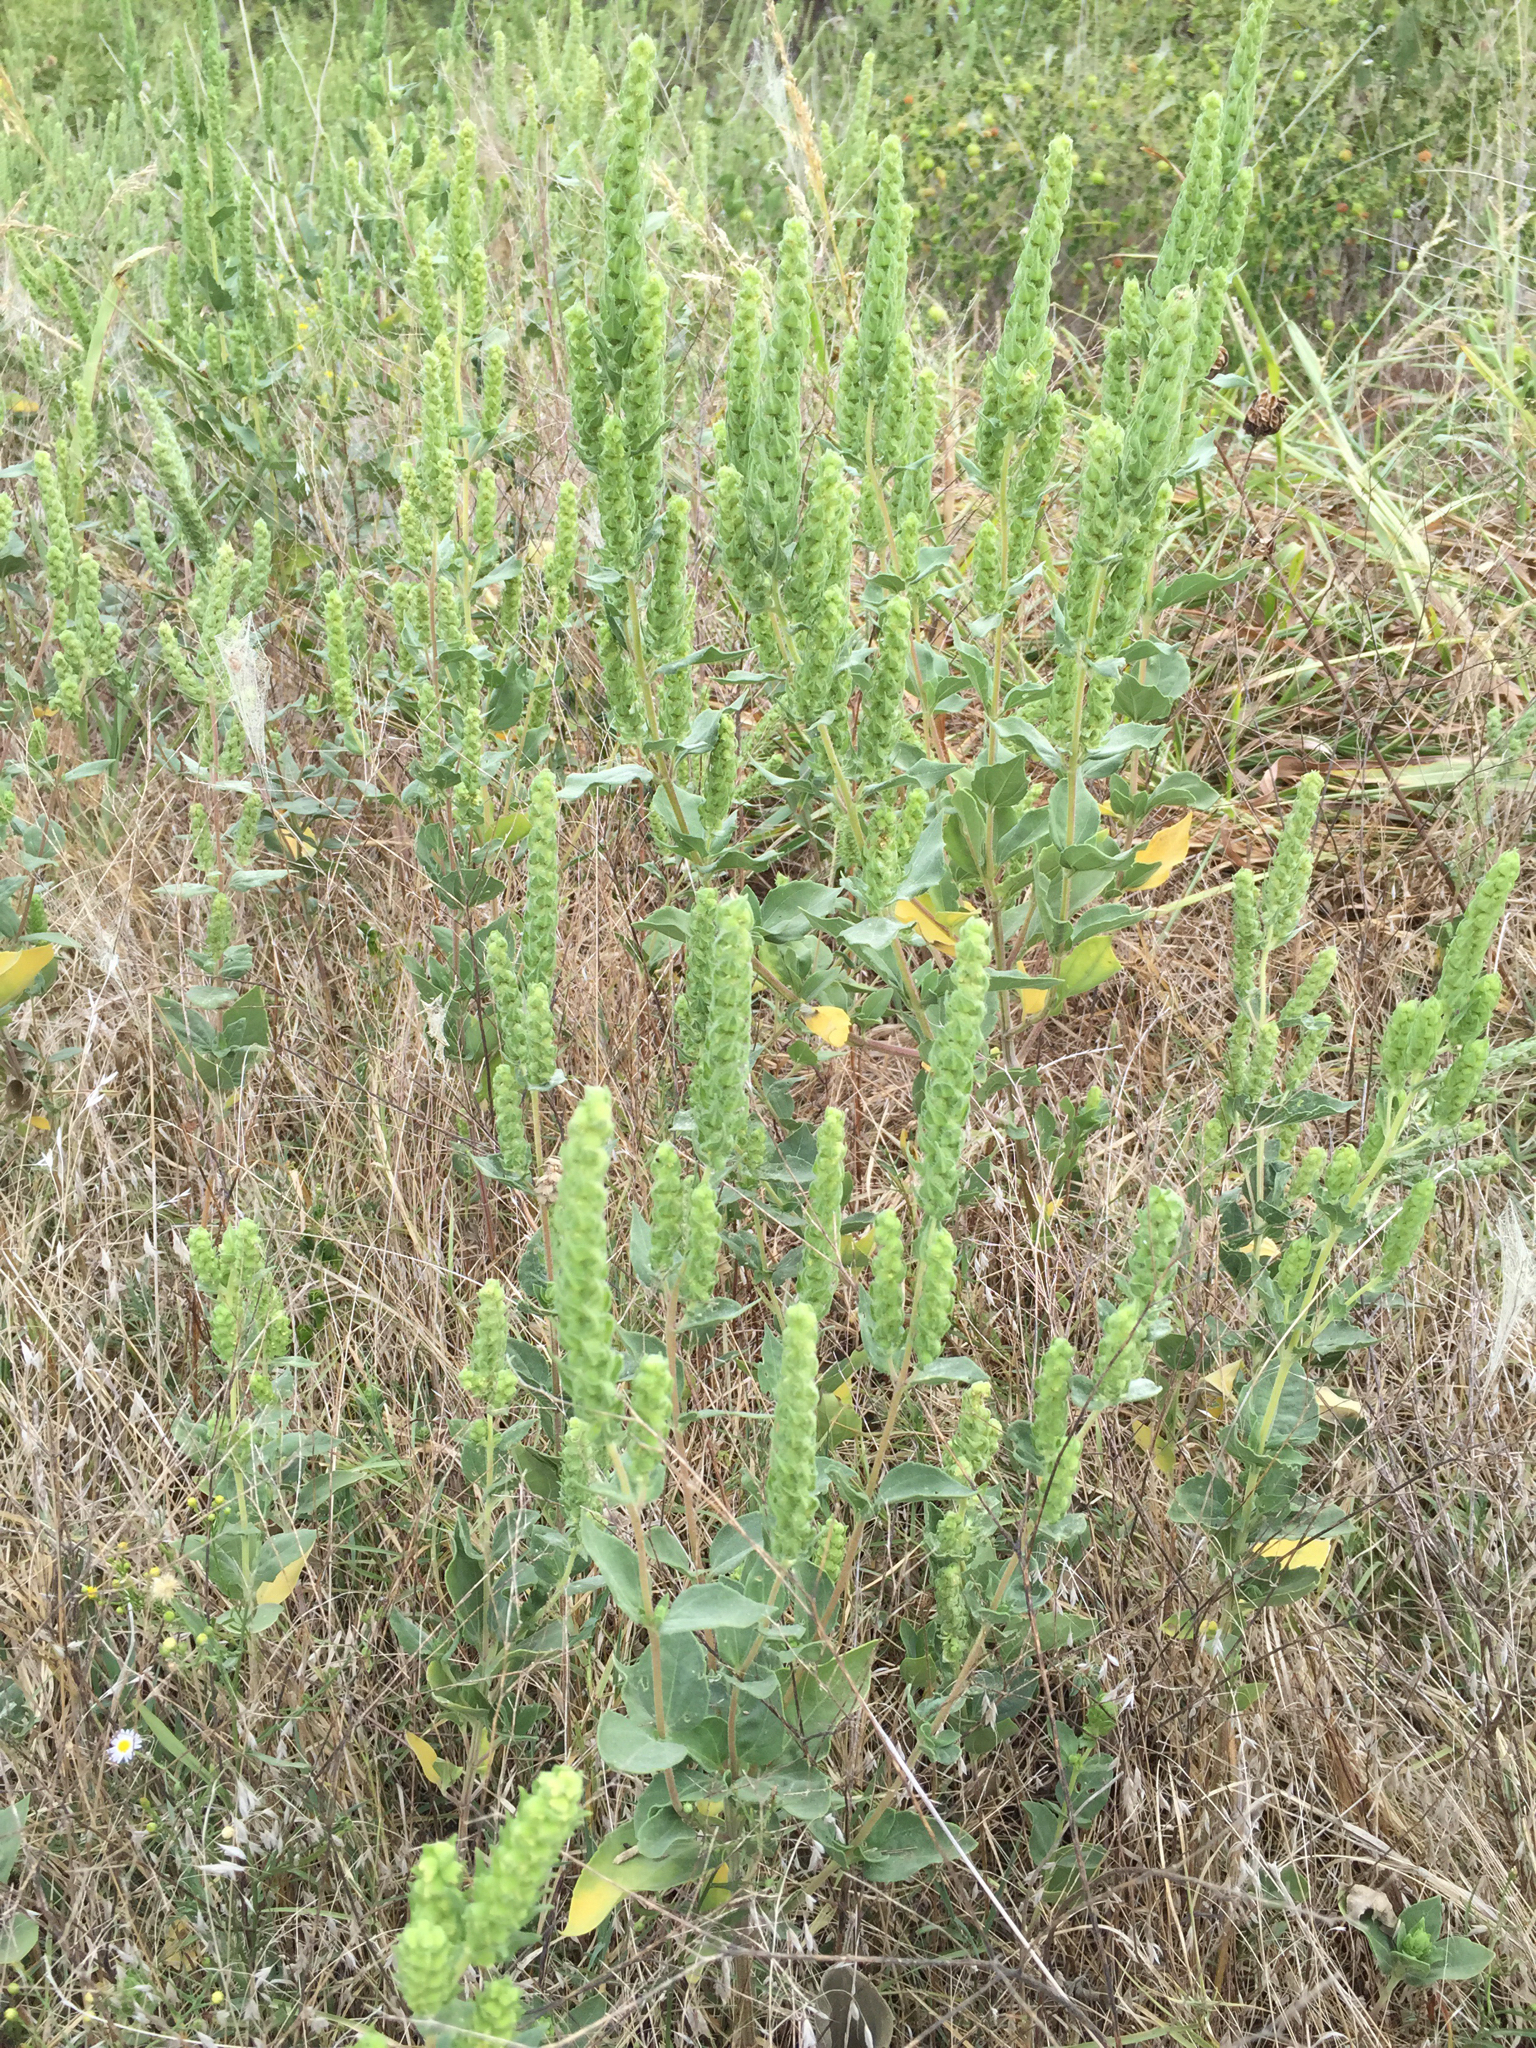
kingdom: Plantae
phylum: Tracheophyta
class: Magnoliopsida
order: Asterales
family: Asteraceae
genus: Iva
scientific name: Iva annua
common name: Marsh-elder
